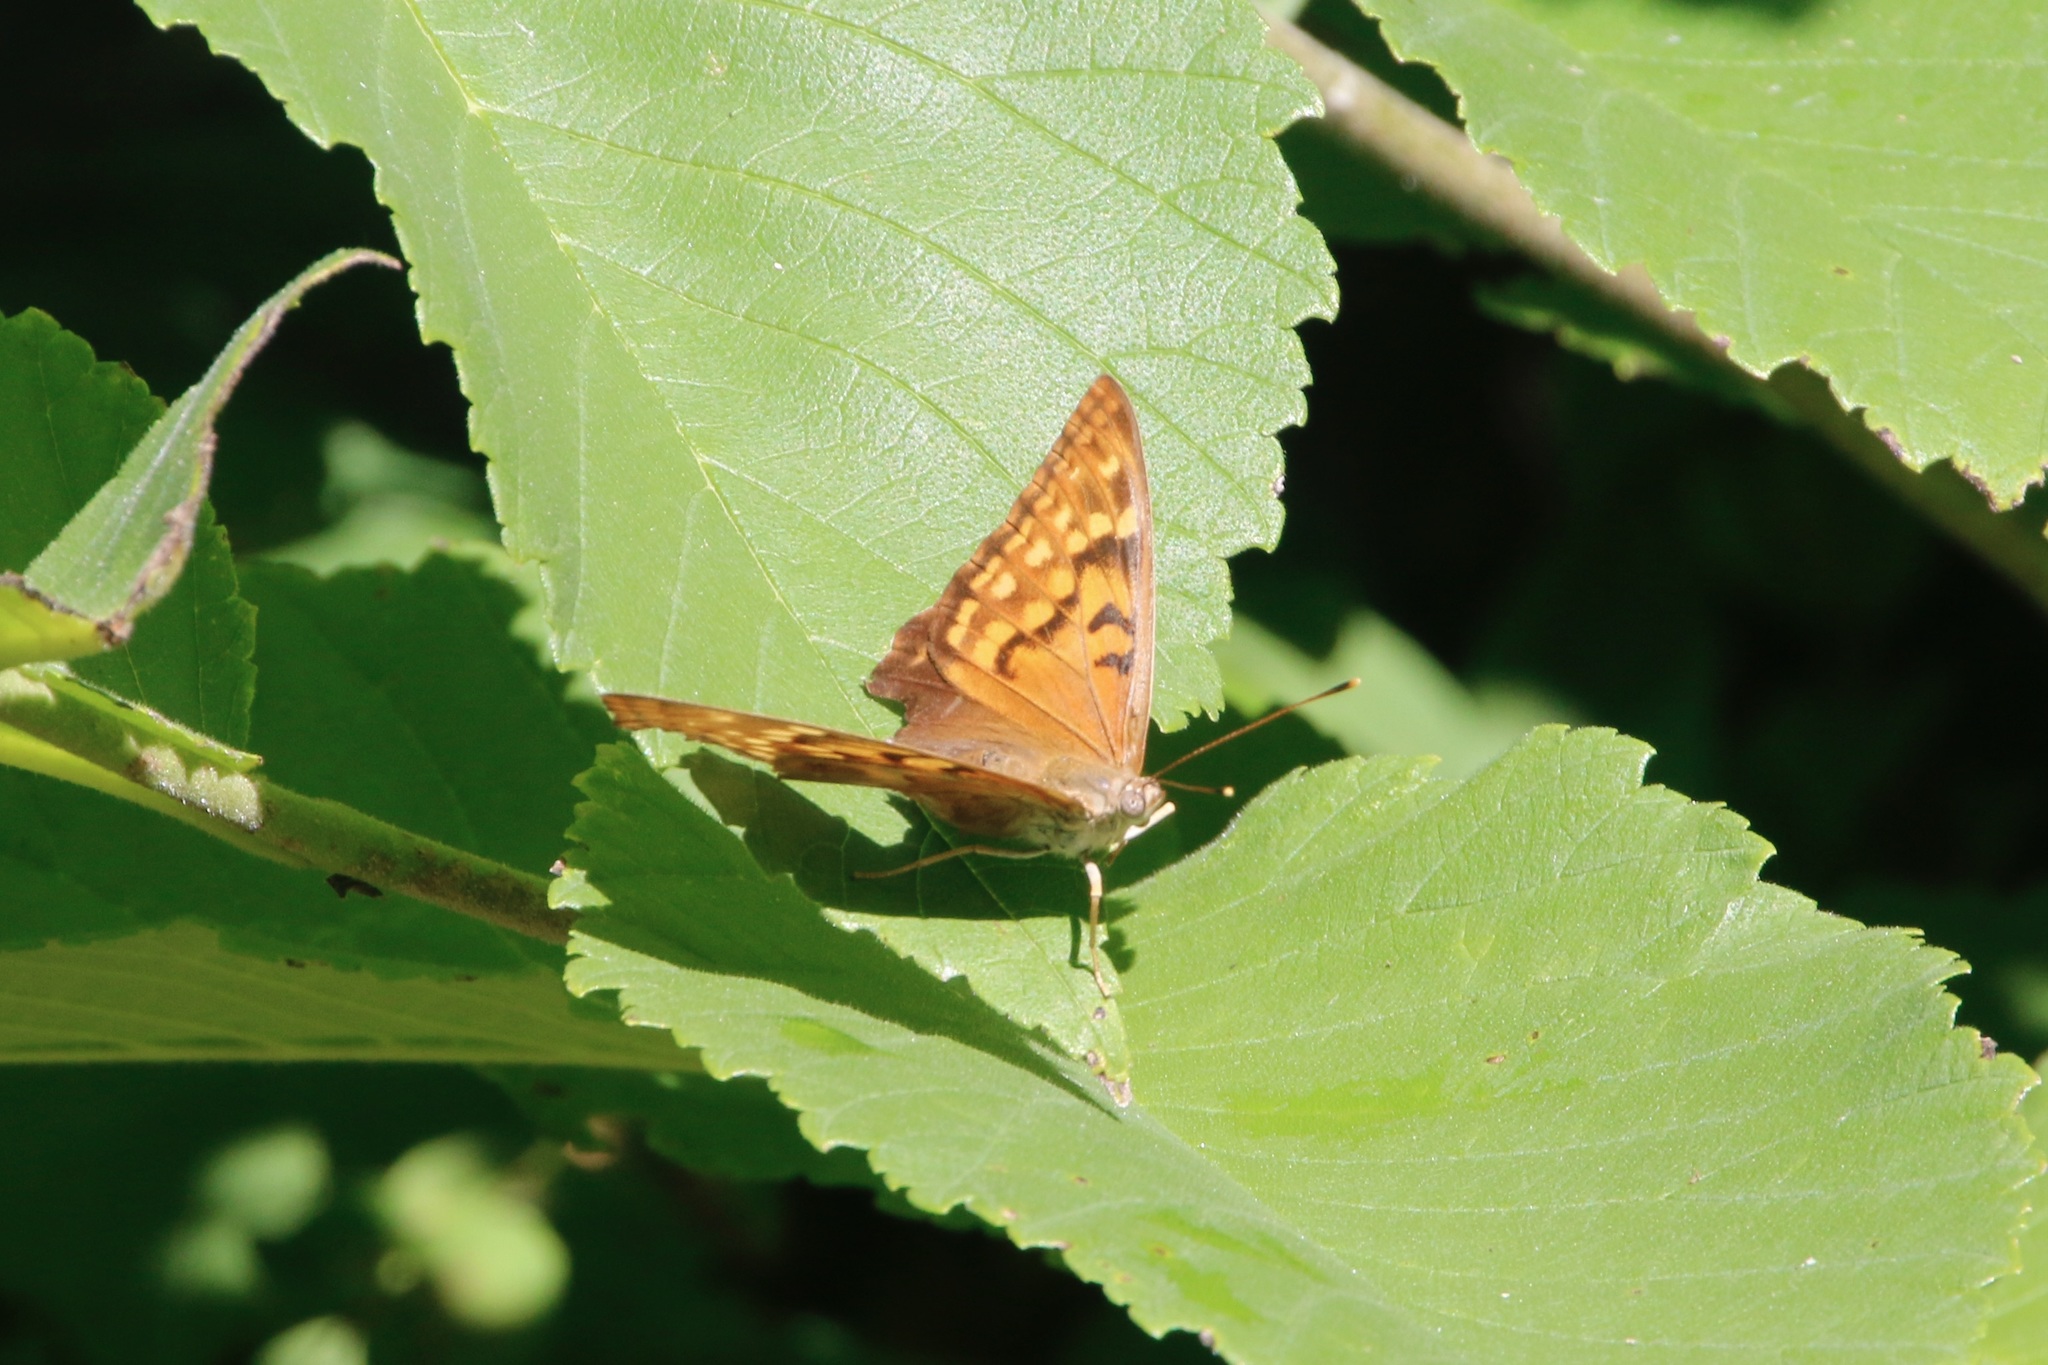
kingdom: Animalia
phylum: Arthropoda
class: Insecta
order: Lepidoptera
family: Nymphalidae
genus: Asterocampa
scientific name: Asterocampa clyton
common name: Tawny emperor
